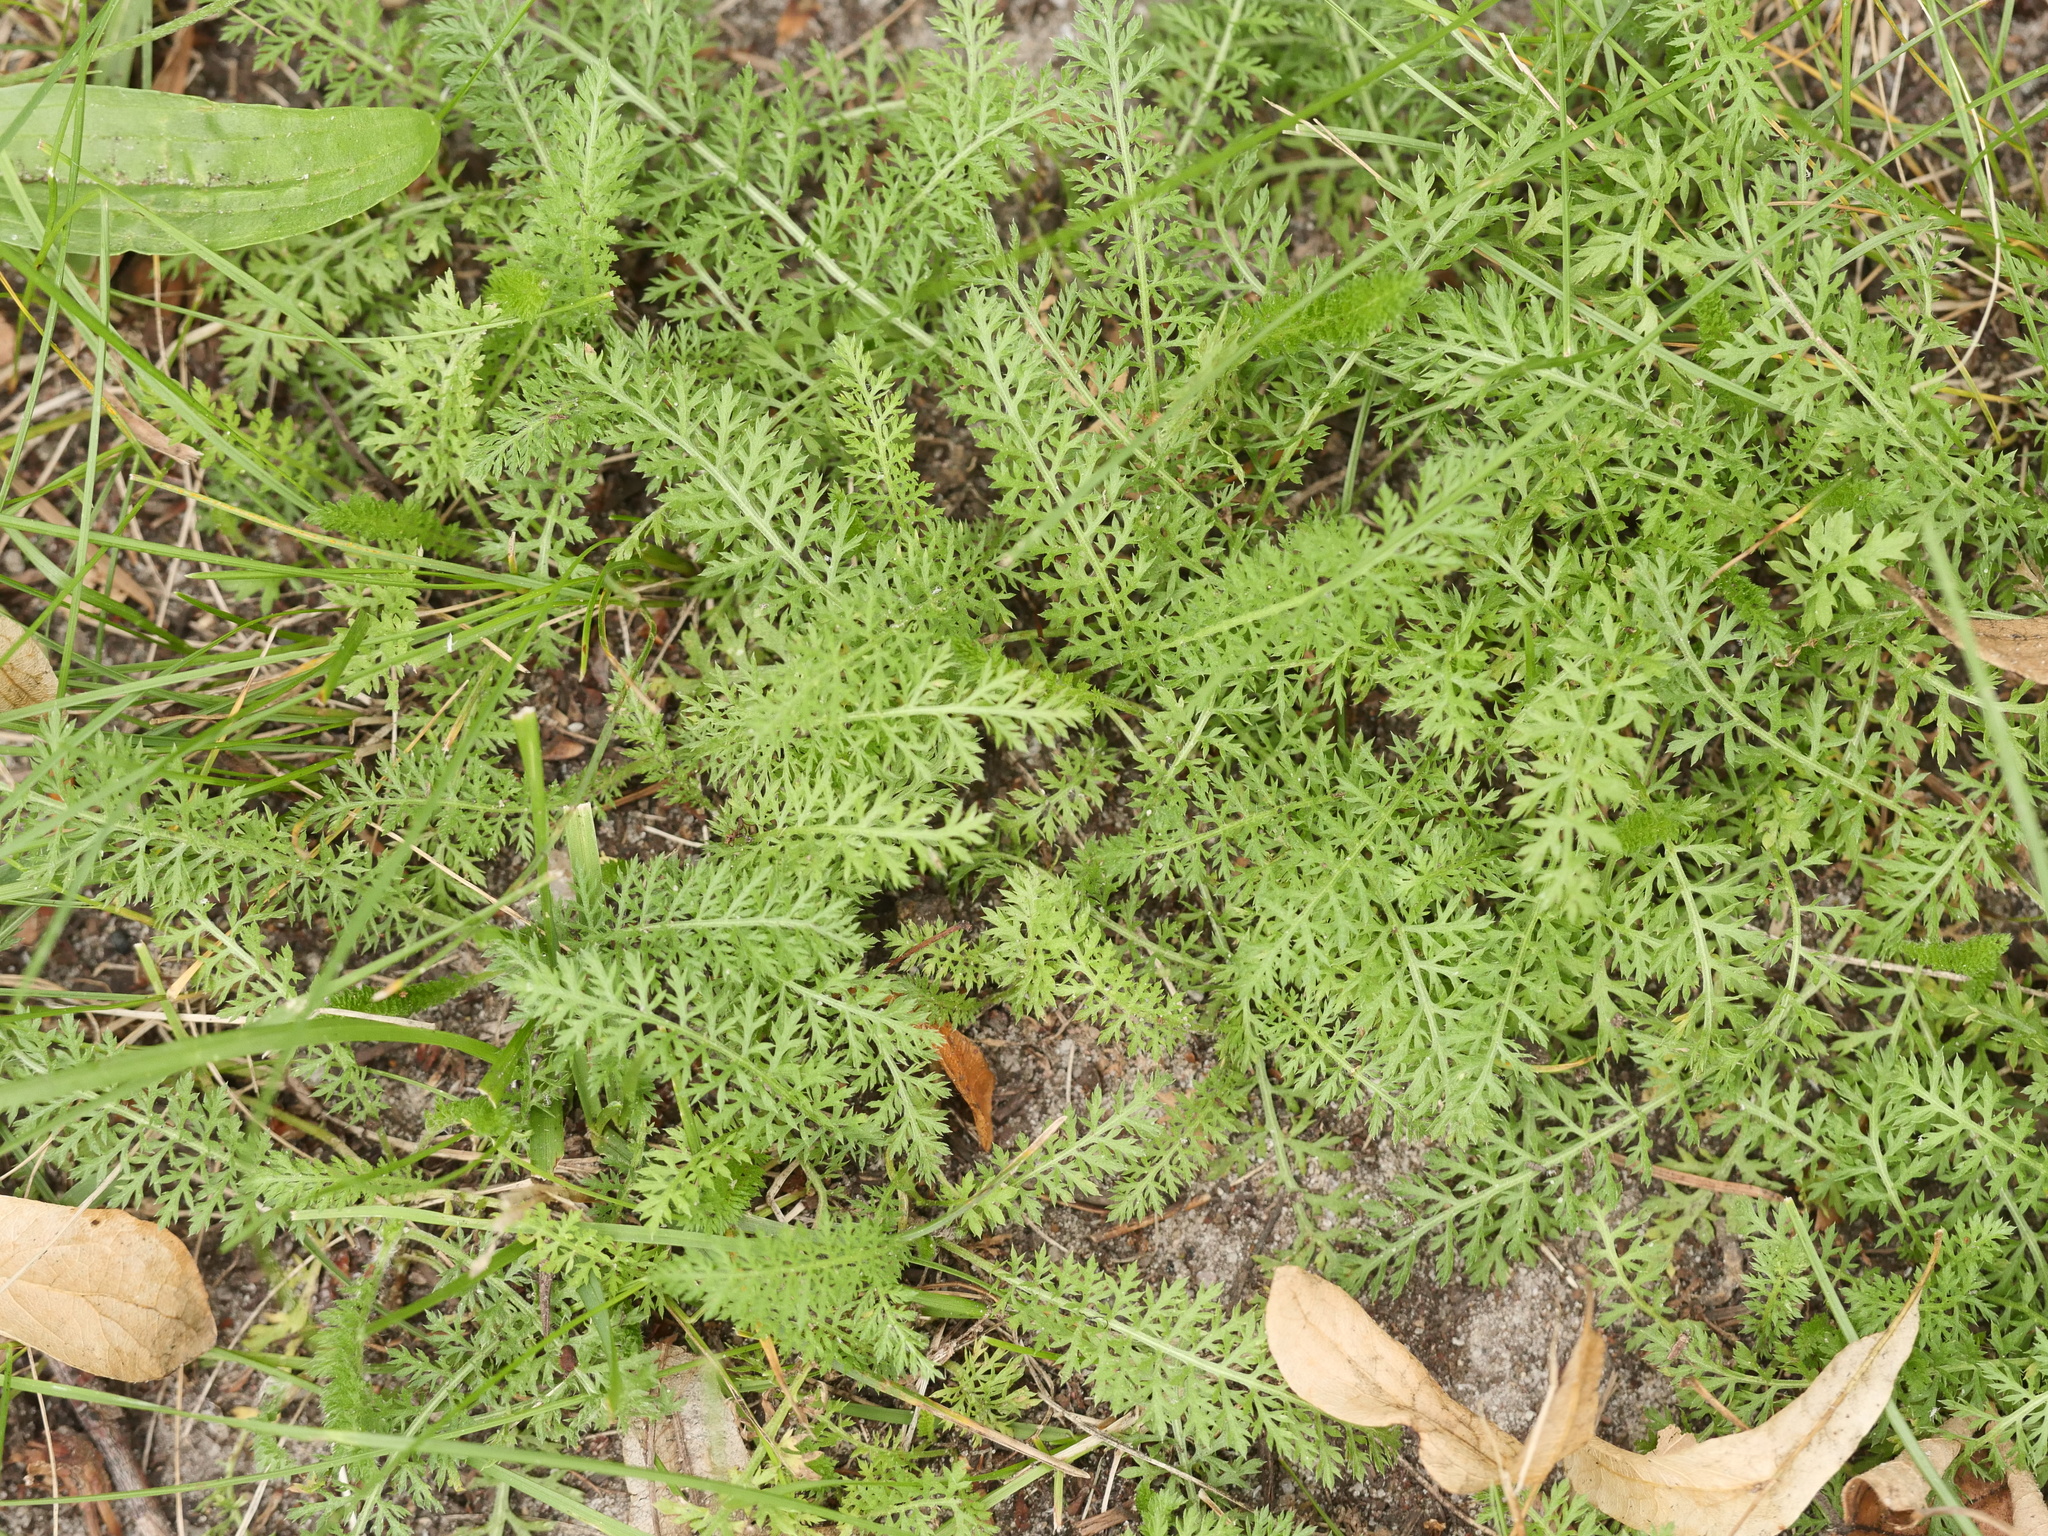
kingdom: Plantae
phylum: Tracheophyta
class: Magnoliopsida
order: Asterales
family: Asteraceae
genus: Achillea
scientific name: Achillea millefolium
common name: Yarrow
